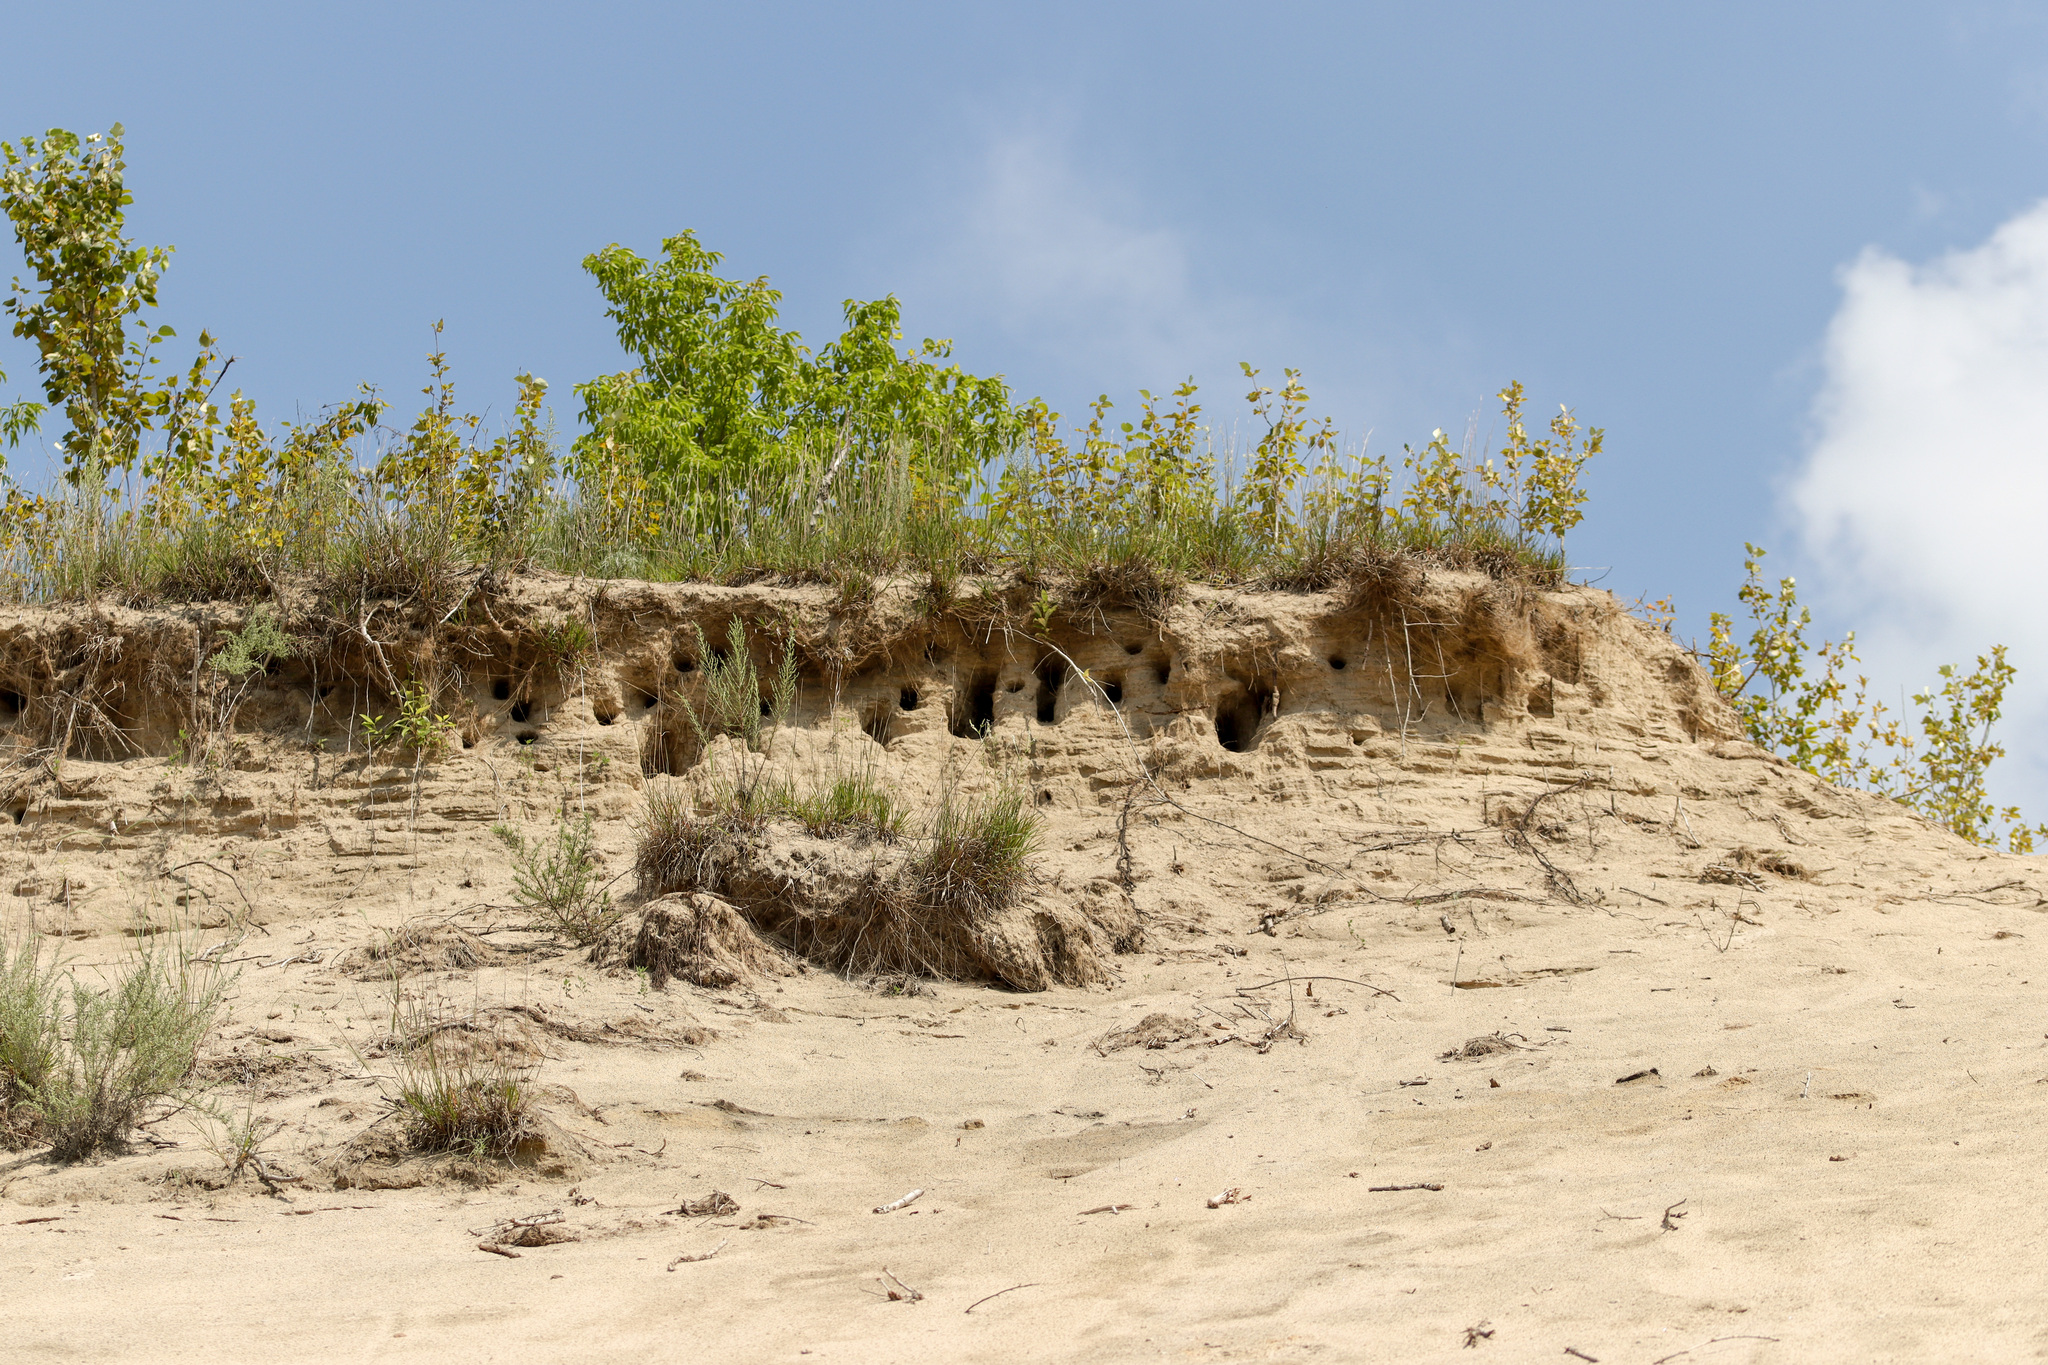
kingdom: Animalia
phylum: Chordata
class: Aves
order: Passeriformes
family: Hirundinidae
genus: Riparia
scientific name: Riparia riparia
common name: Sand martin
